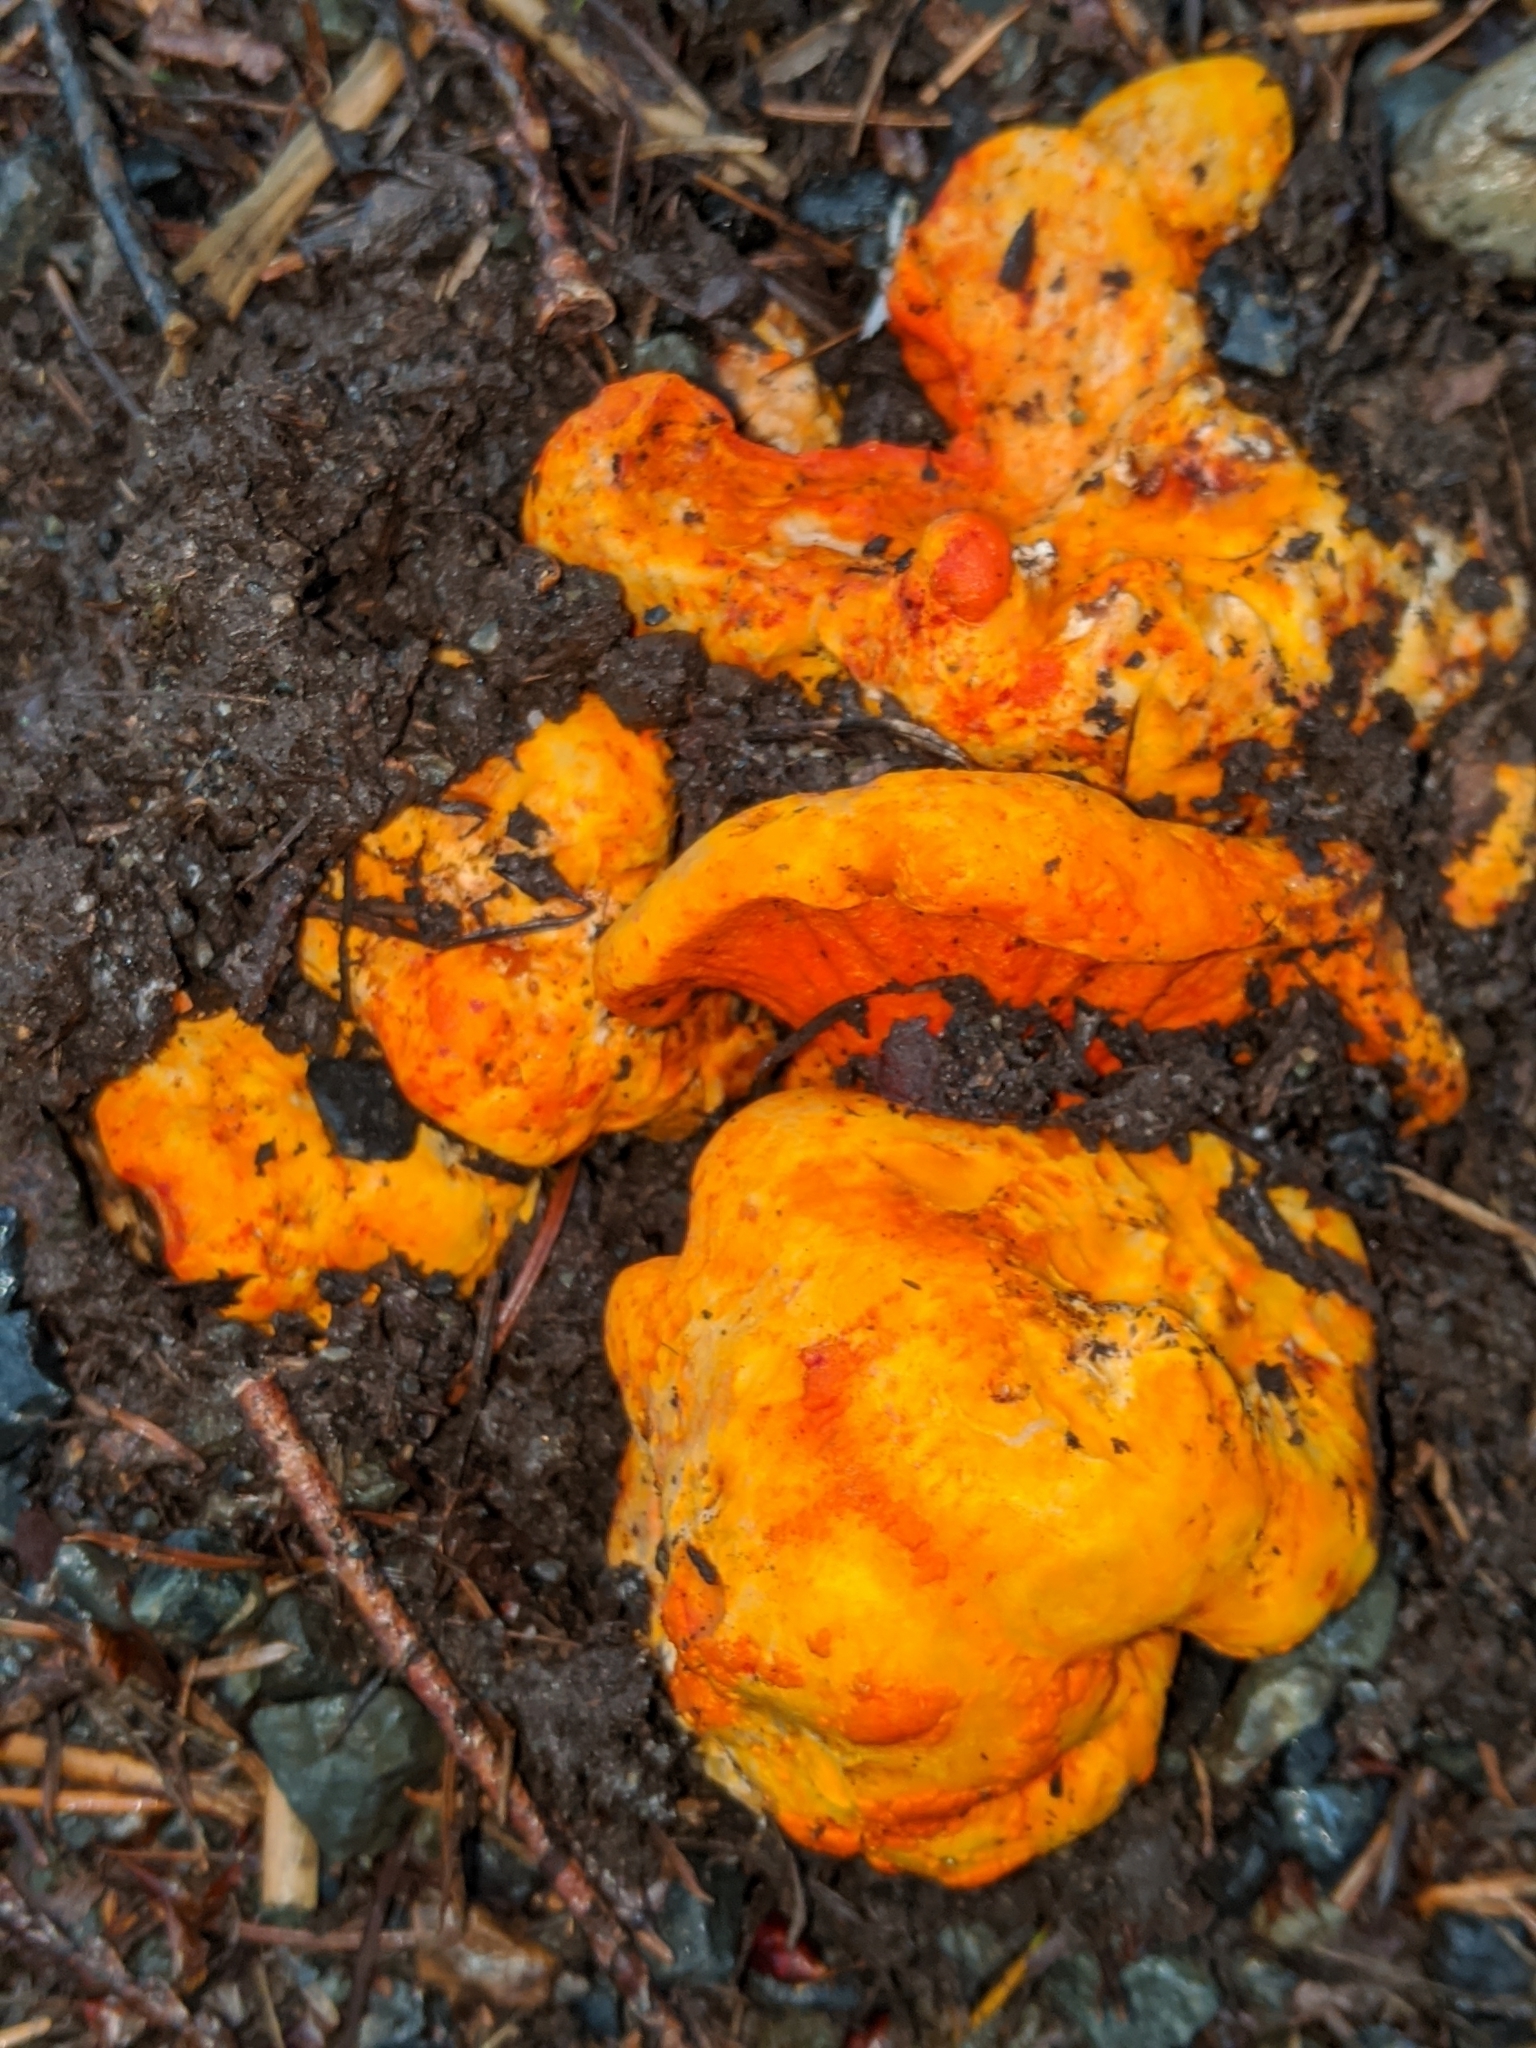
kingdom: Fungi
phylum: Ascomycota
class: Sordariomycetes
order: Hypocreales
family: Hypocreaceae
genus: Hypomyces
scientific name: Hypomyces lactifluorum
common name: Lobster mushroom
